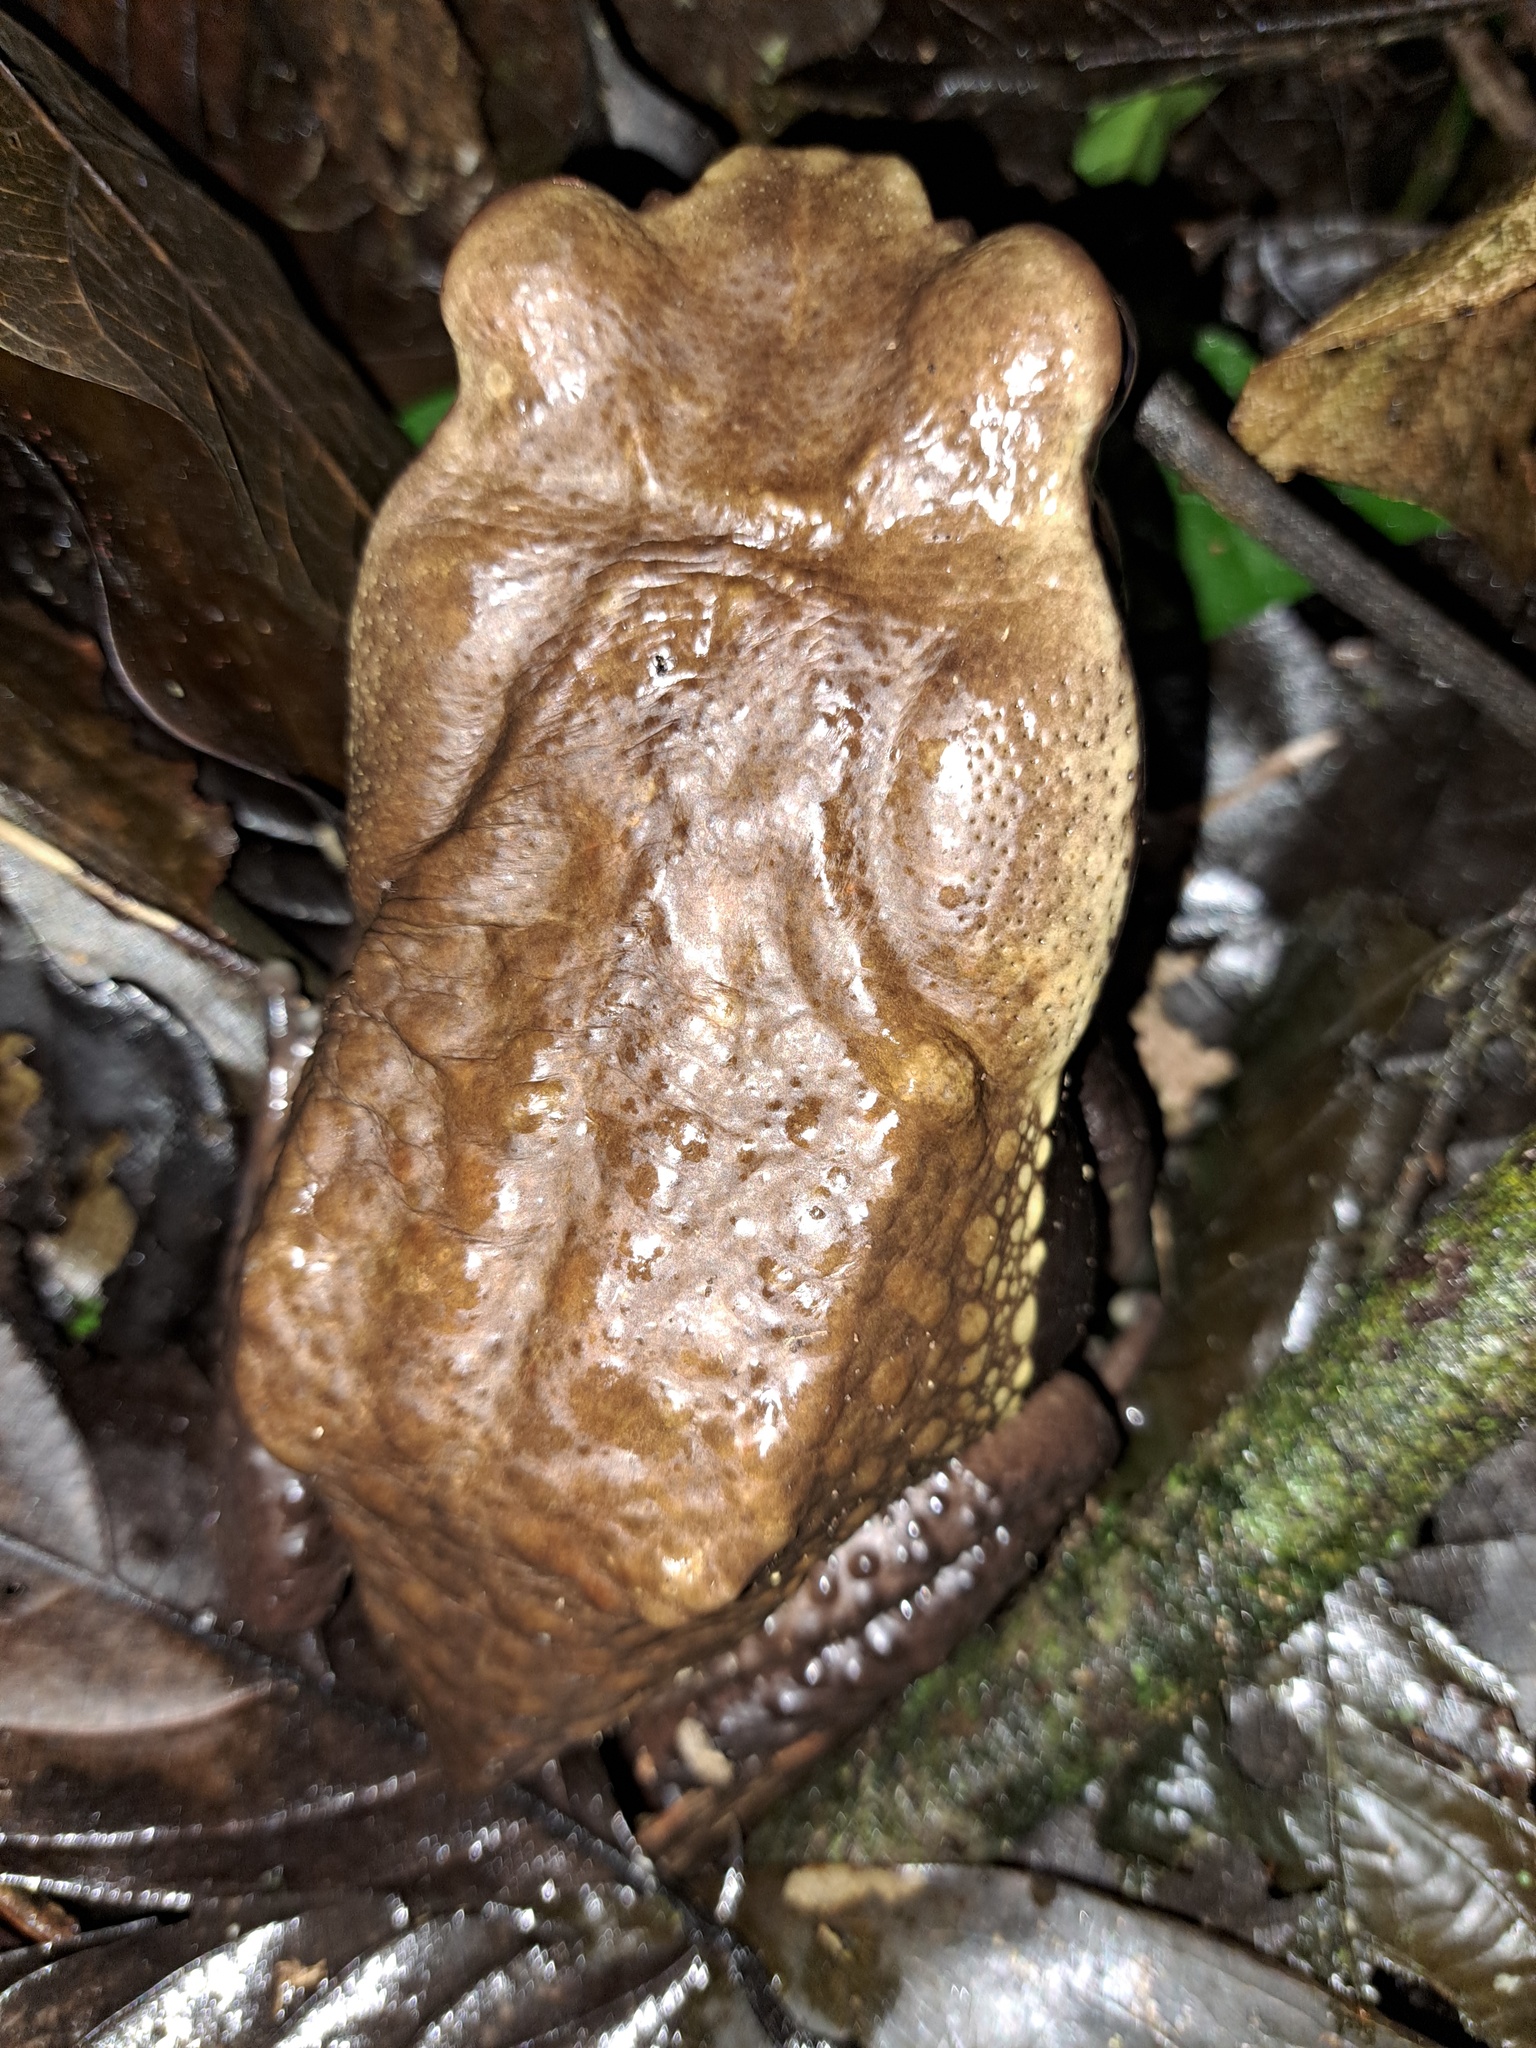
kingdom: Animalia
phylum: Chordata
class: Amphibia
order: Anura
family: Bufonidae
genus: Rhaebo
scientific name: Rhaebo guttatus
